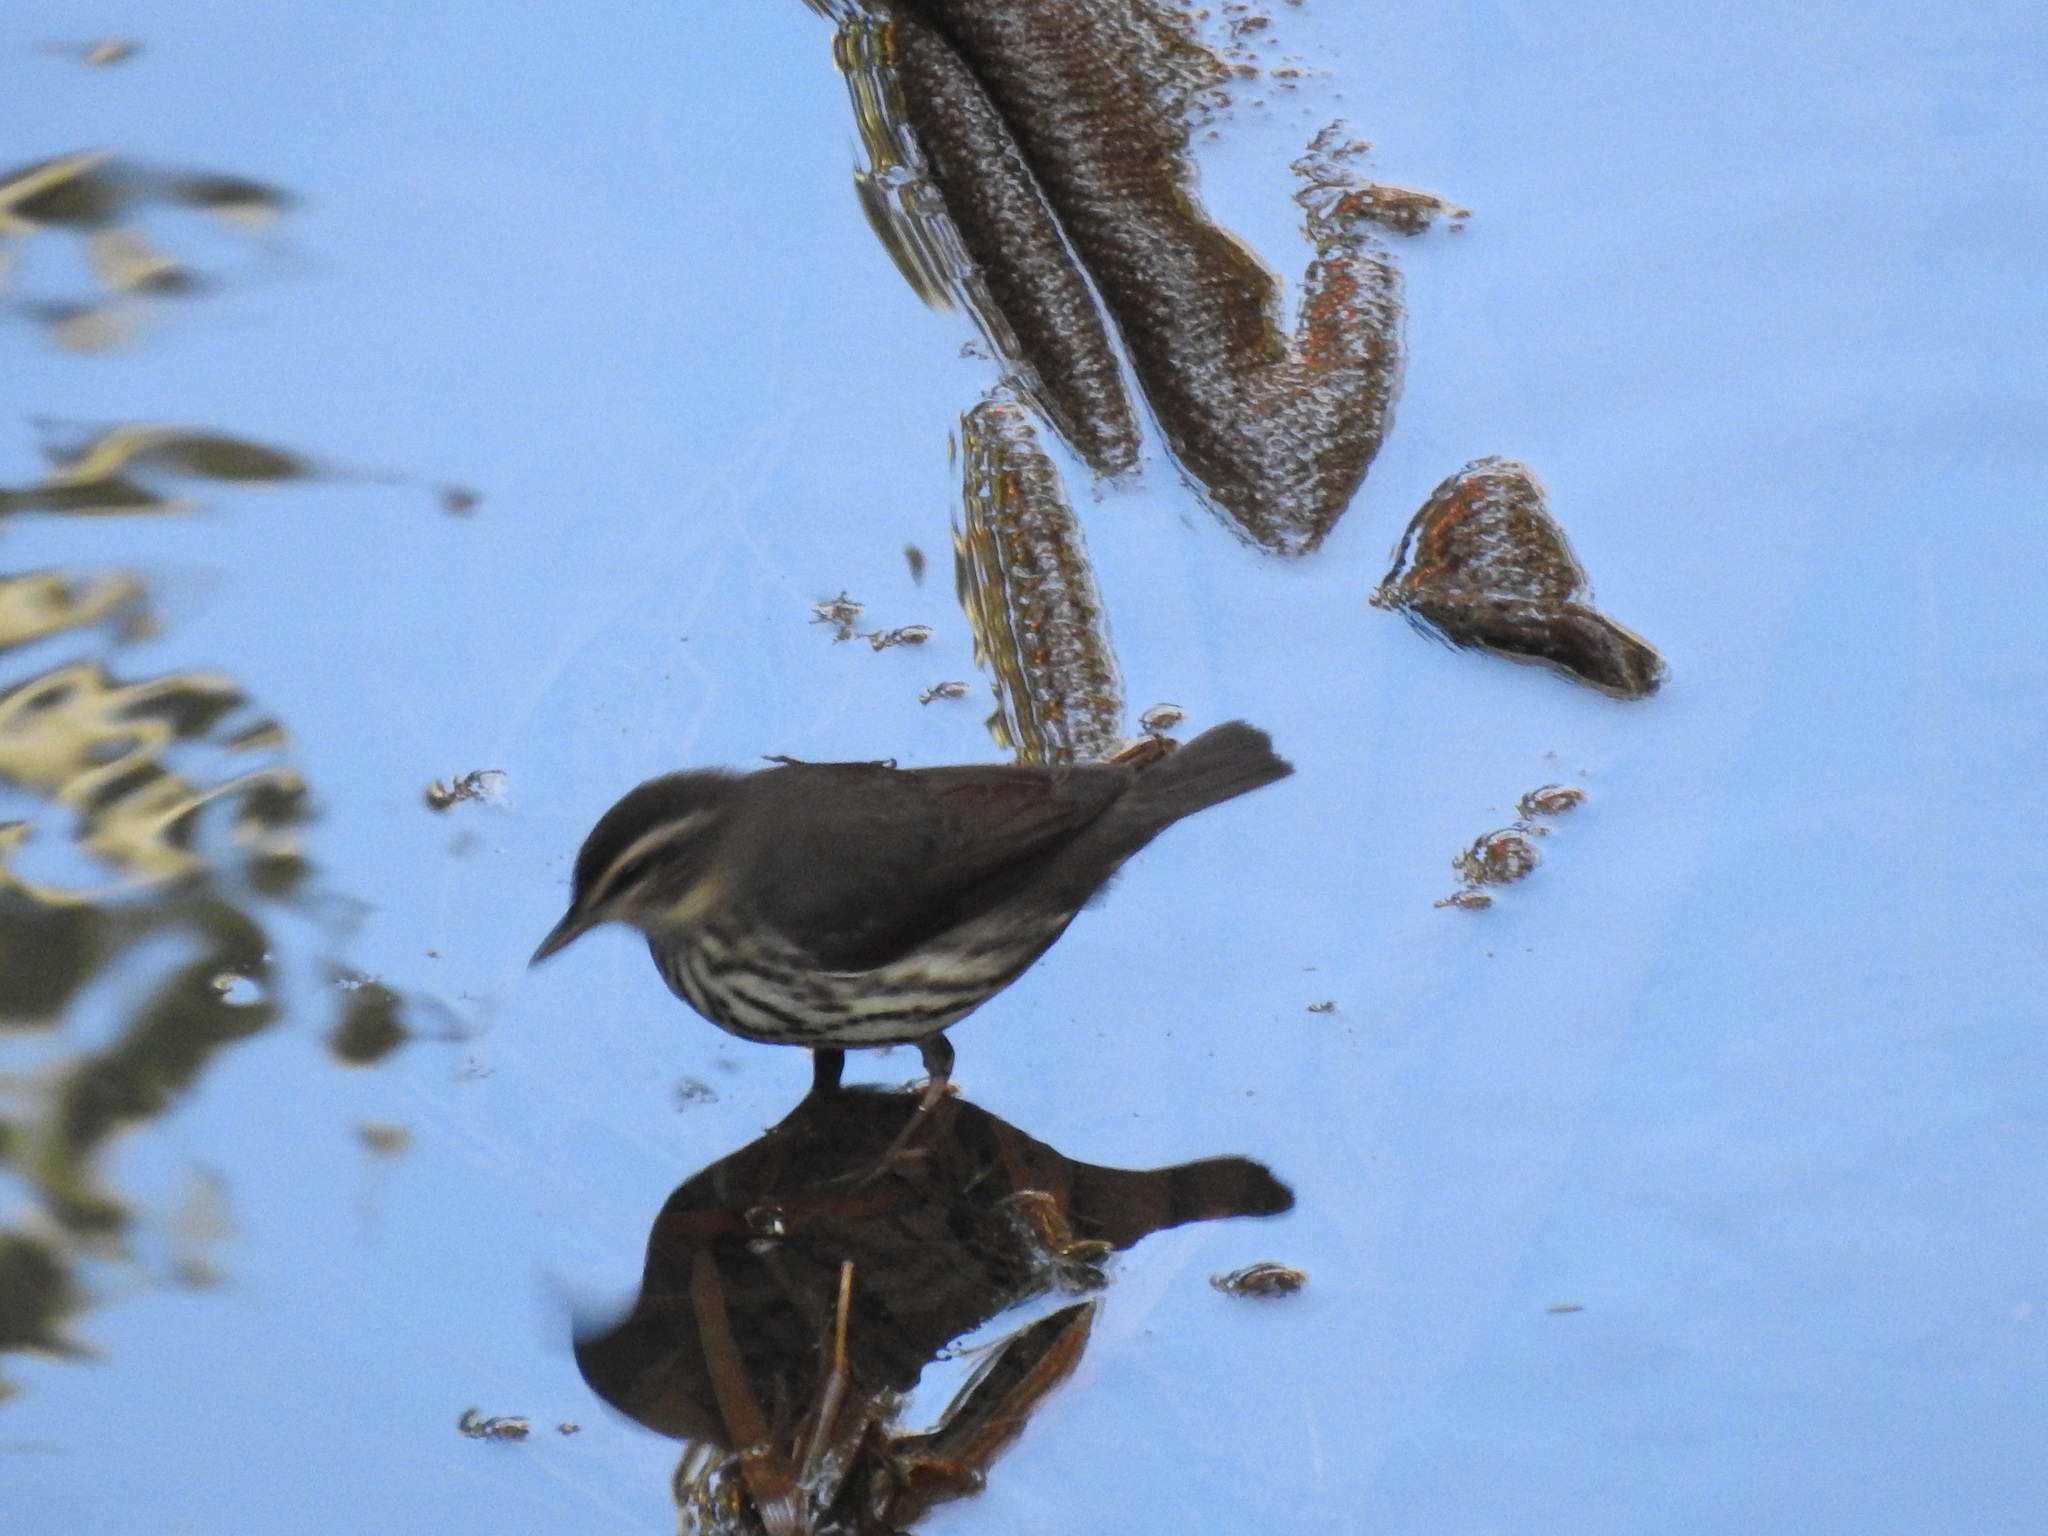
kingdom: Animalia
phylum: Chordata
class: Aves
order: Passeriformes
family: Parulidae
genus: Parkesia
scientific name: Parkesia noveboracensis
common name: Northern waterthrush
